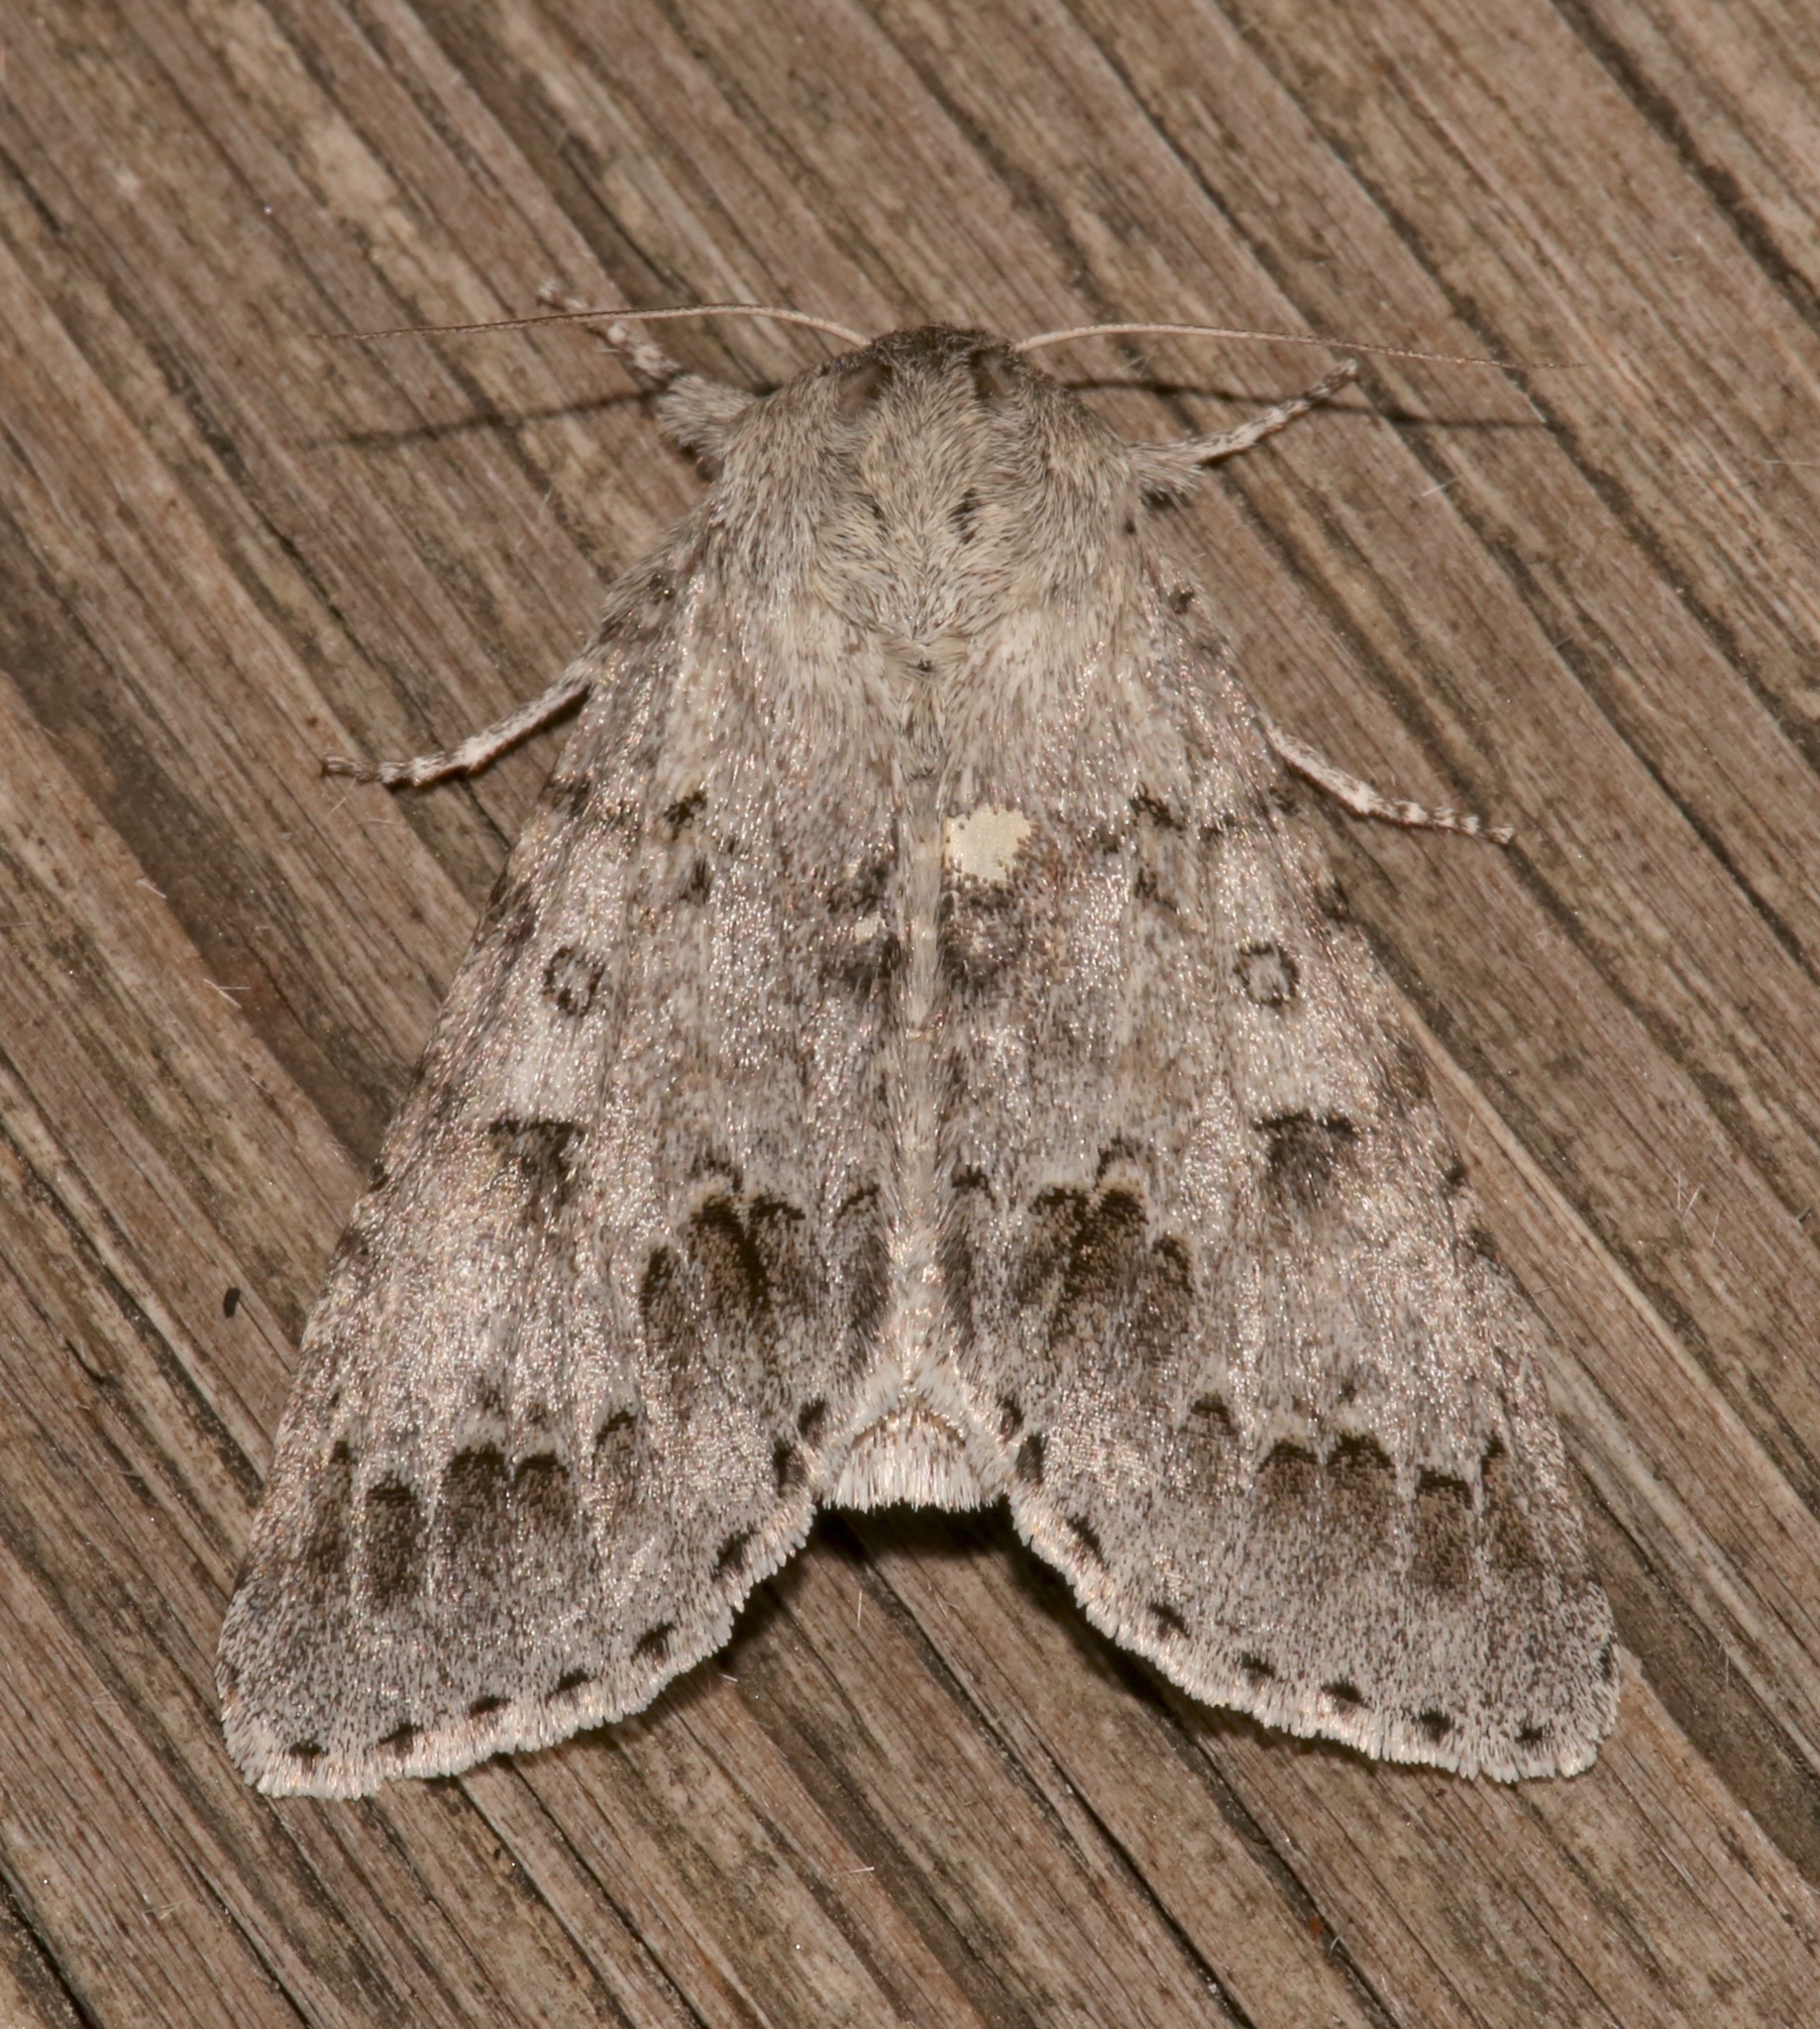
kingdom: Animalia
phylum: Arthropoda
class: Insecta
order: Lepidoptera
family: Noctuidae
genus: Acronicta
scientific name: Acronicta insita
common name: Large gray dagger
